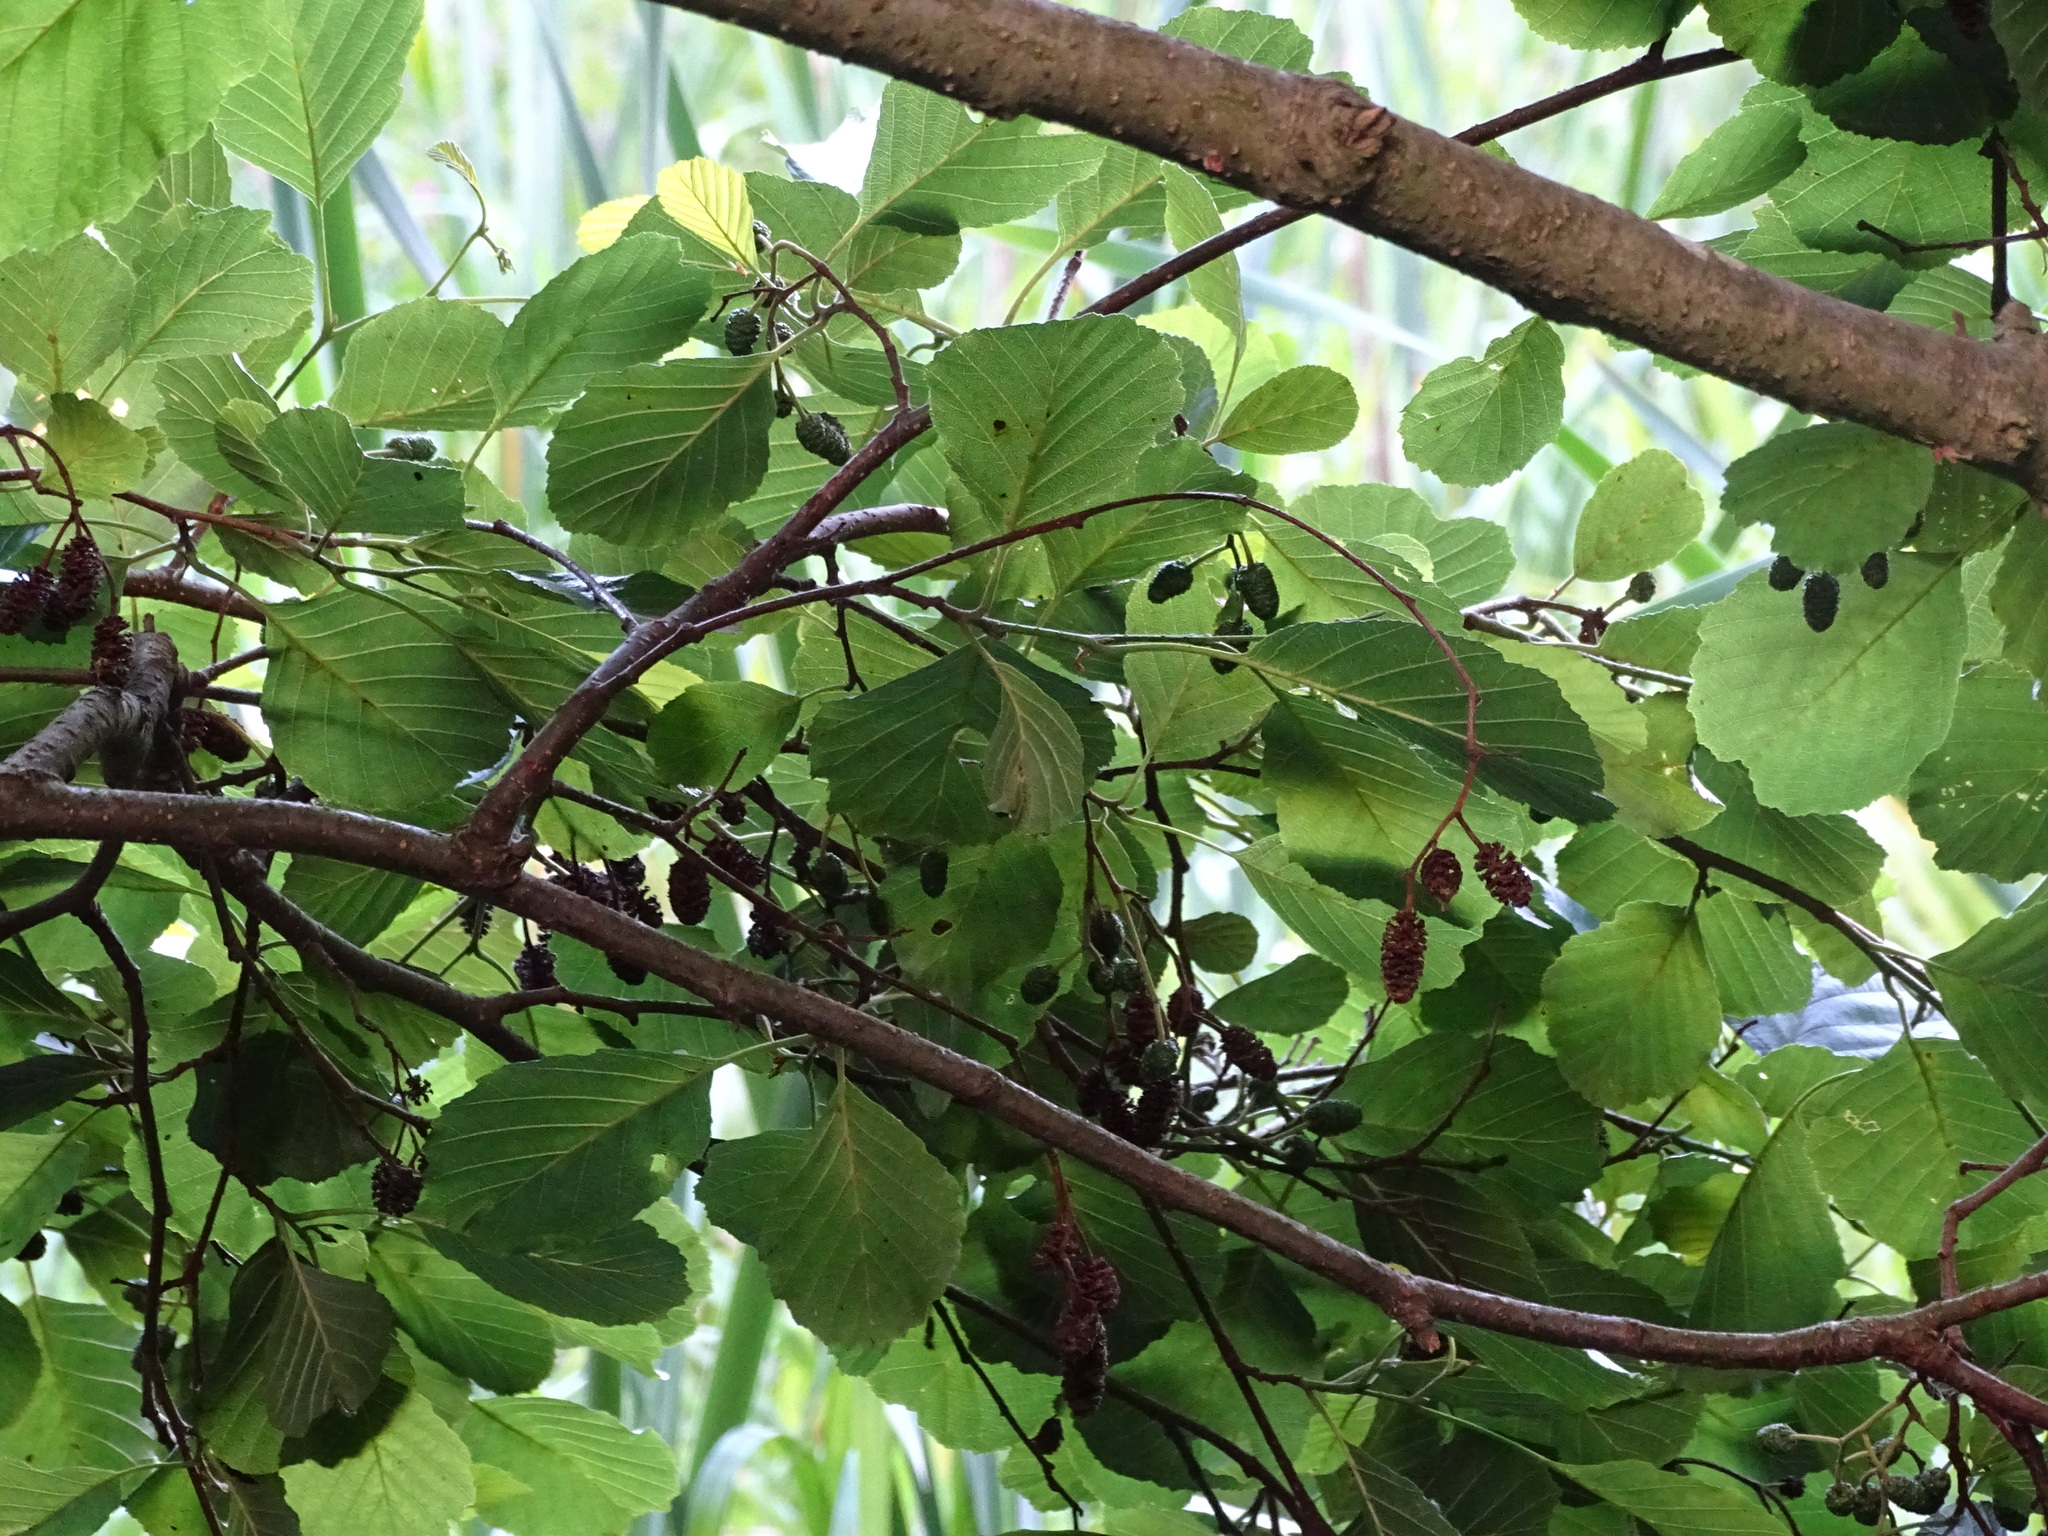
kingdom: Plantae
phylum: Tracheophyta
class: Magnoliopsida
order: Fagales
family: Betulaceae
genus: Alnus
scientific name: Alnus glutinosa
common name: Black alder
